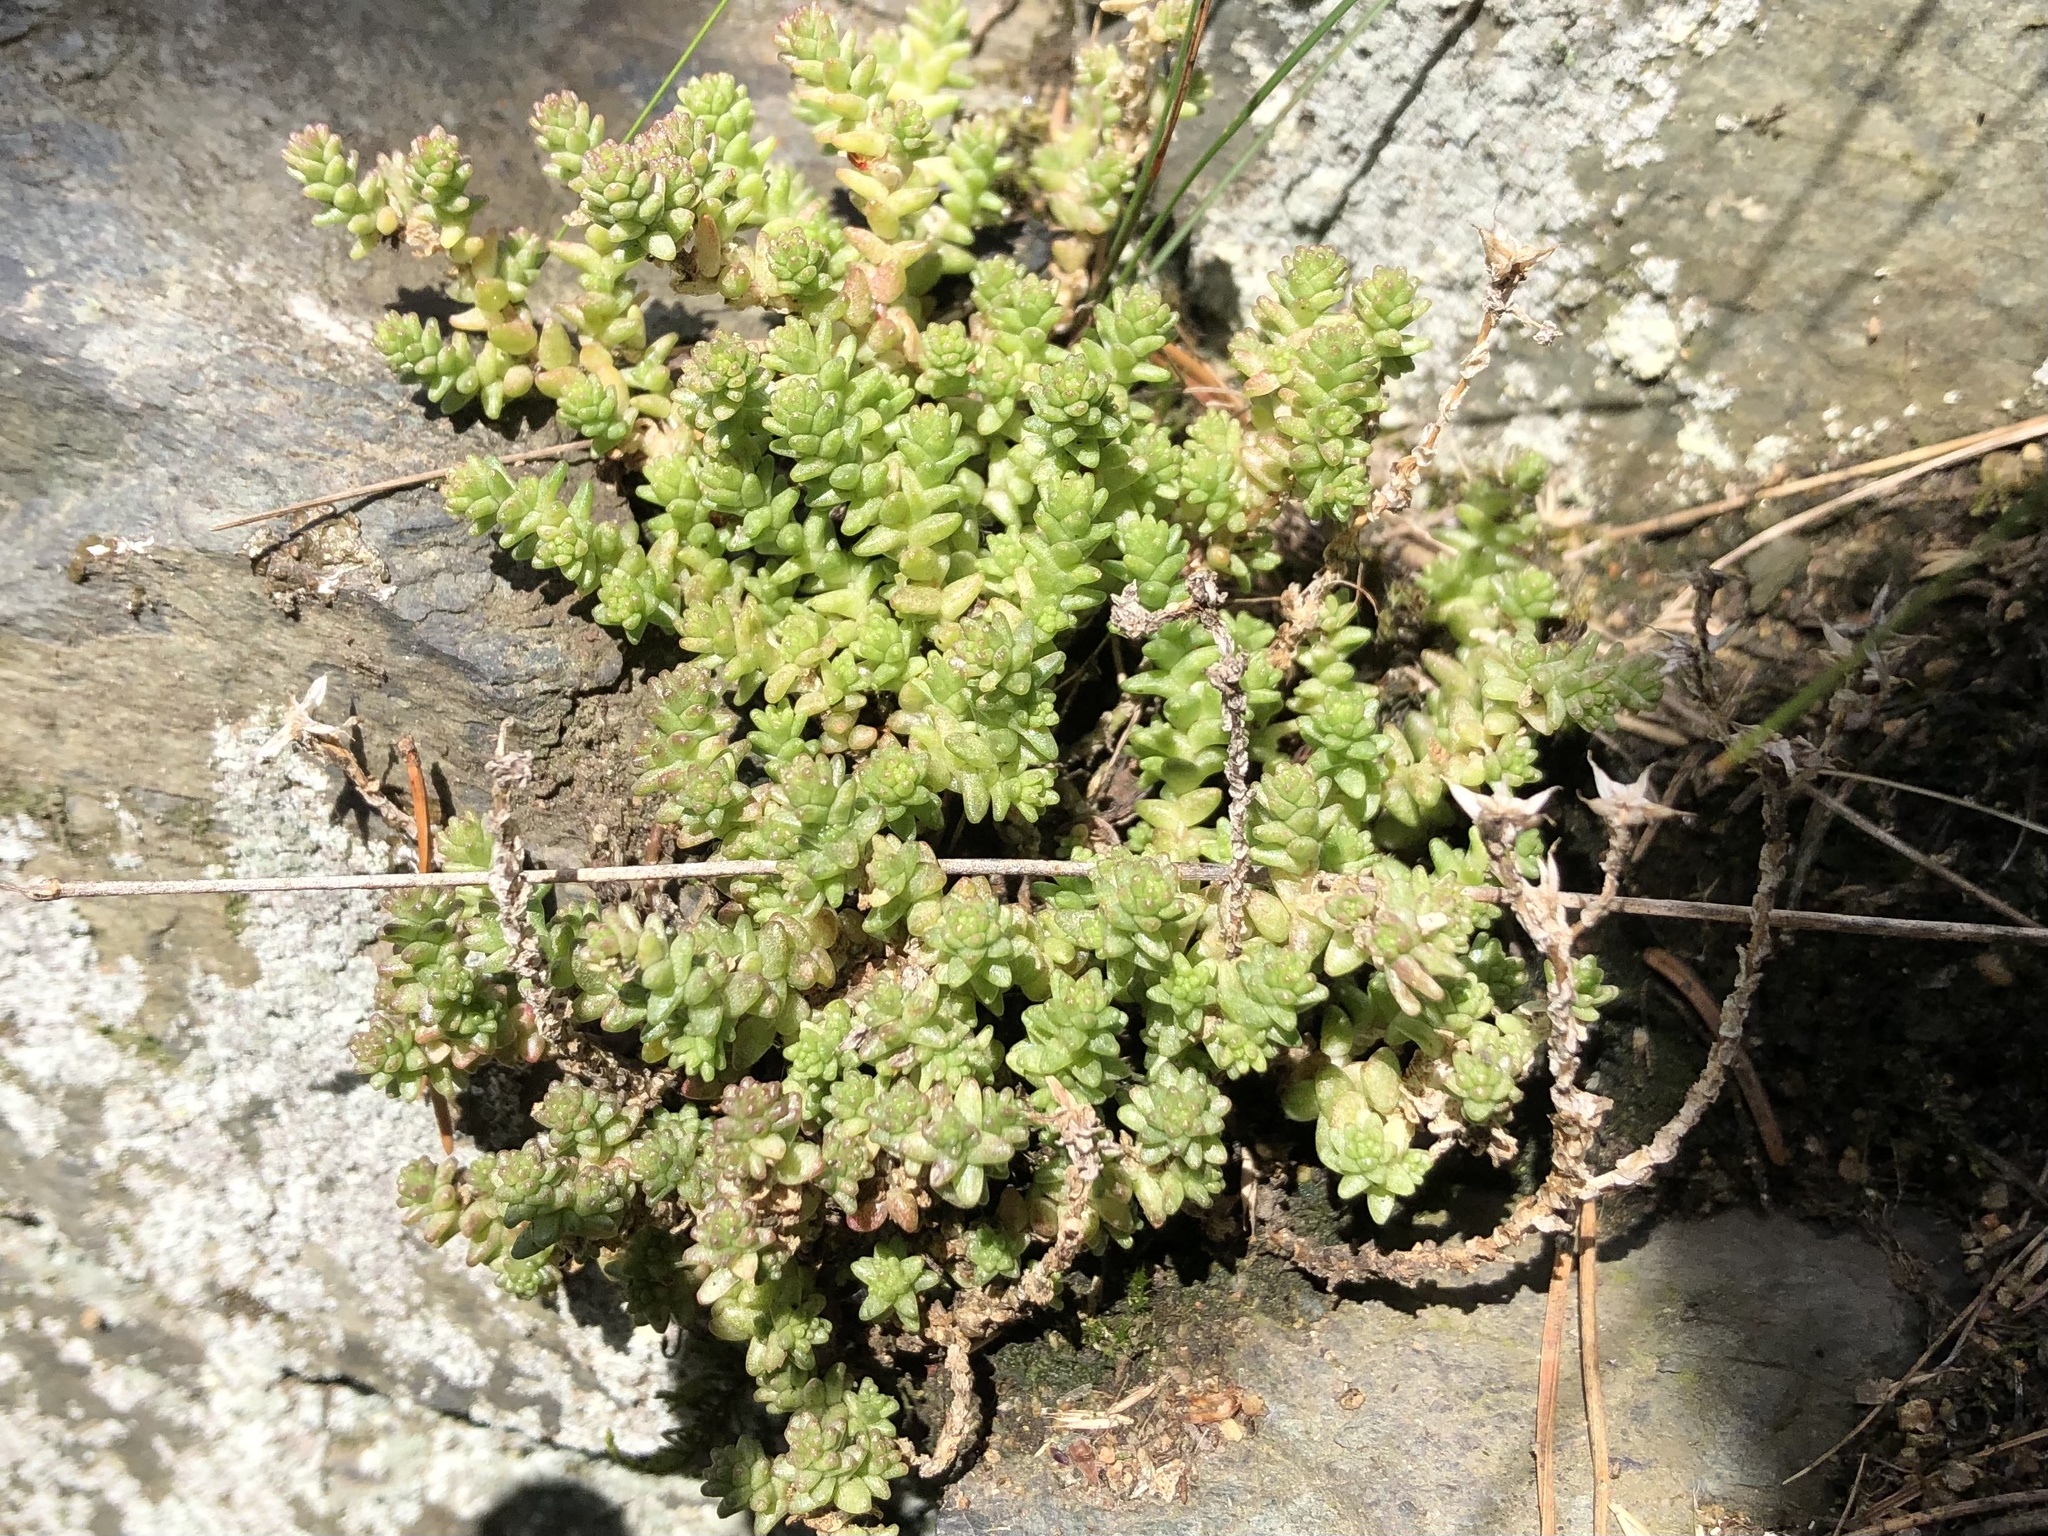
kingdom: Plantae
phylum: Tracheophyta
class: Magnoliopsida
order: Saxifragales
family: Crassulaceae
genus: Sedum
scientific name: Sedum acre
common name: Biting stonecrop
